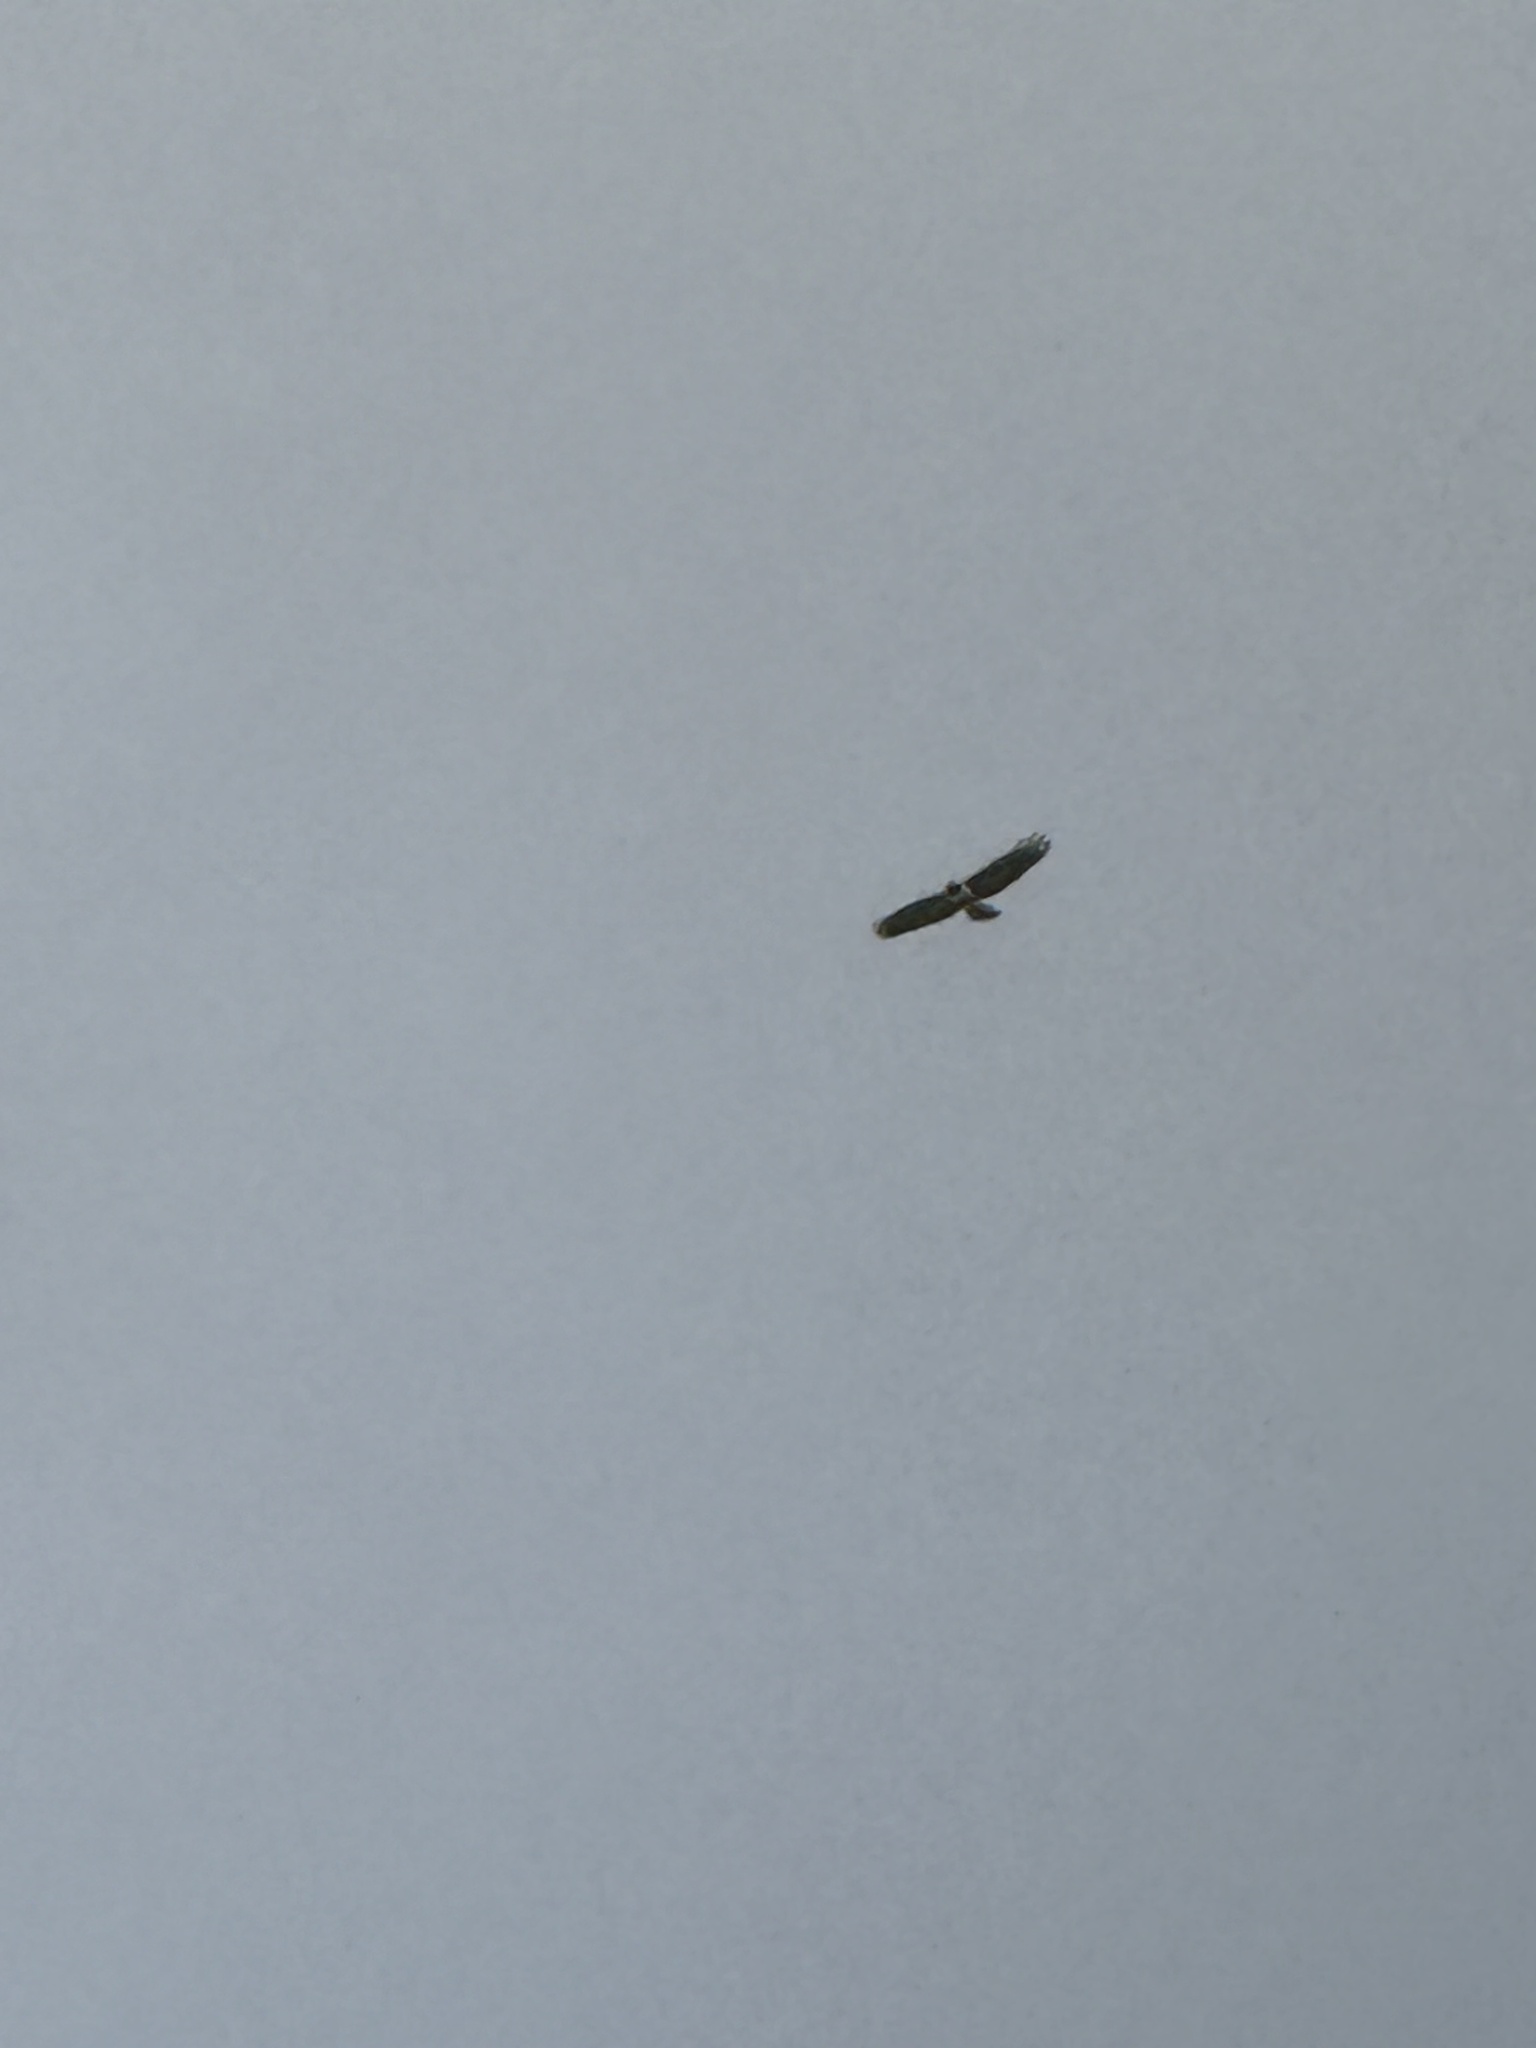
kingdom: Animalia
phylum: Chordata
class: Aves
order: Accipitriformes
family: Accipitridae
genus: Buteo
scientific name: Buteo jamaicensis
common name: Red-tailed hawk
